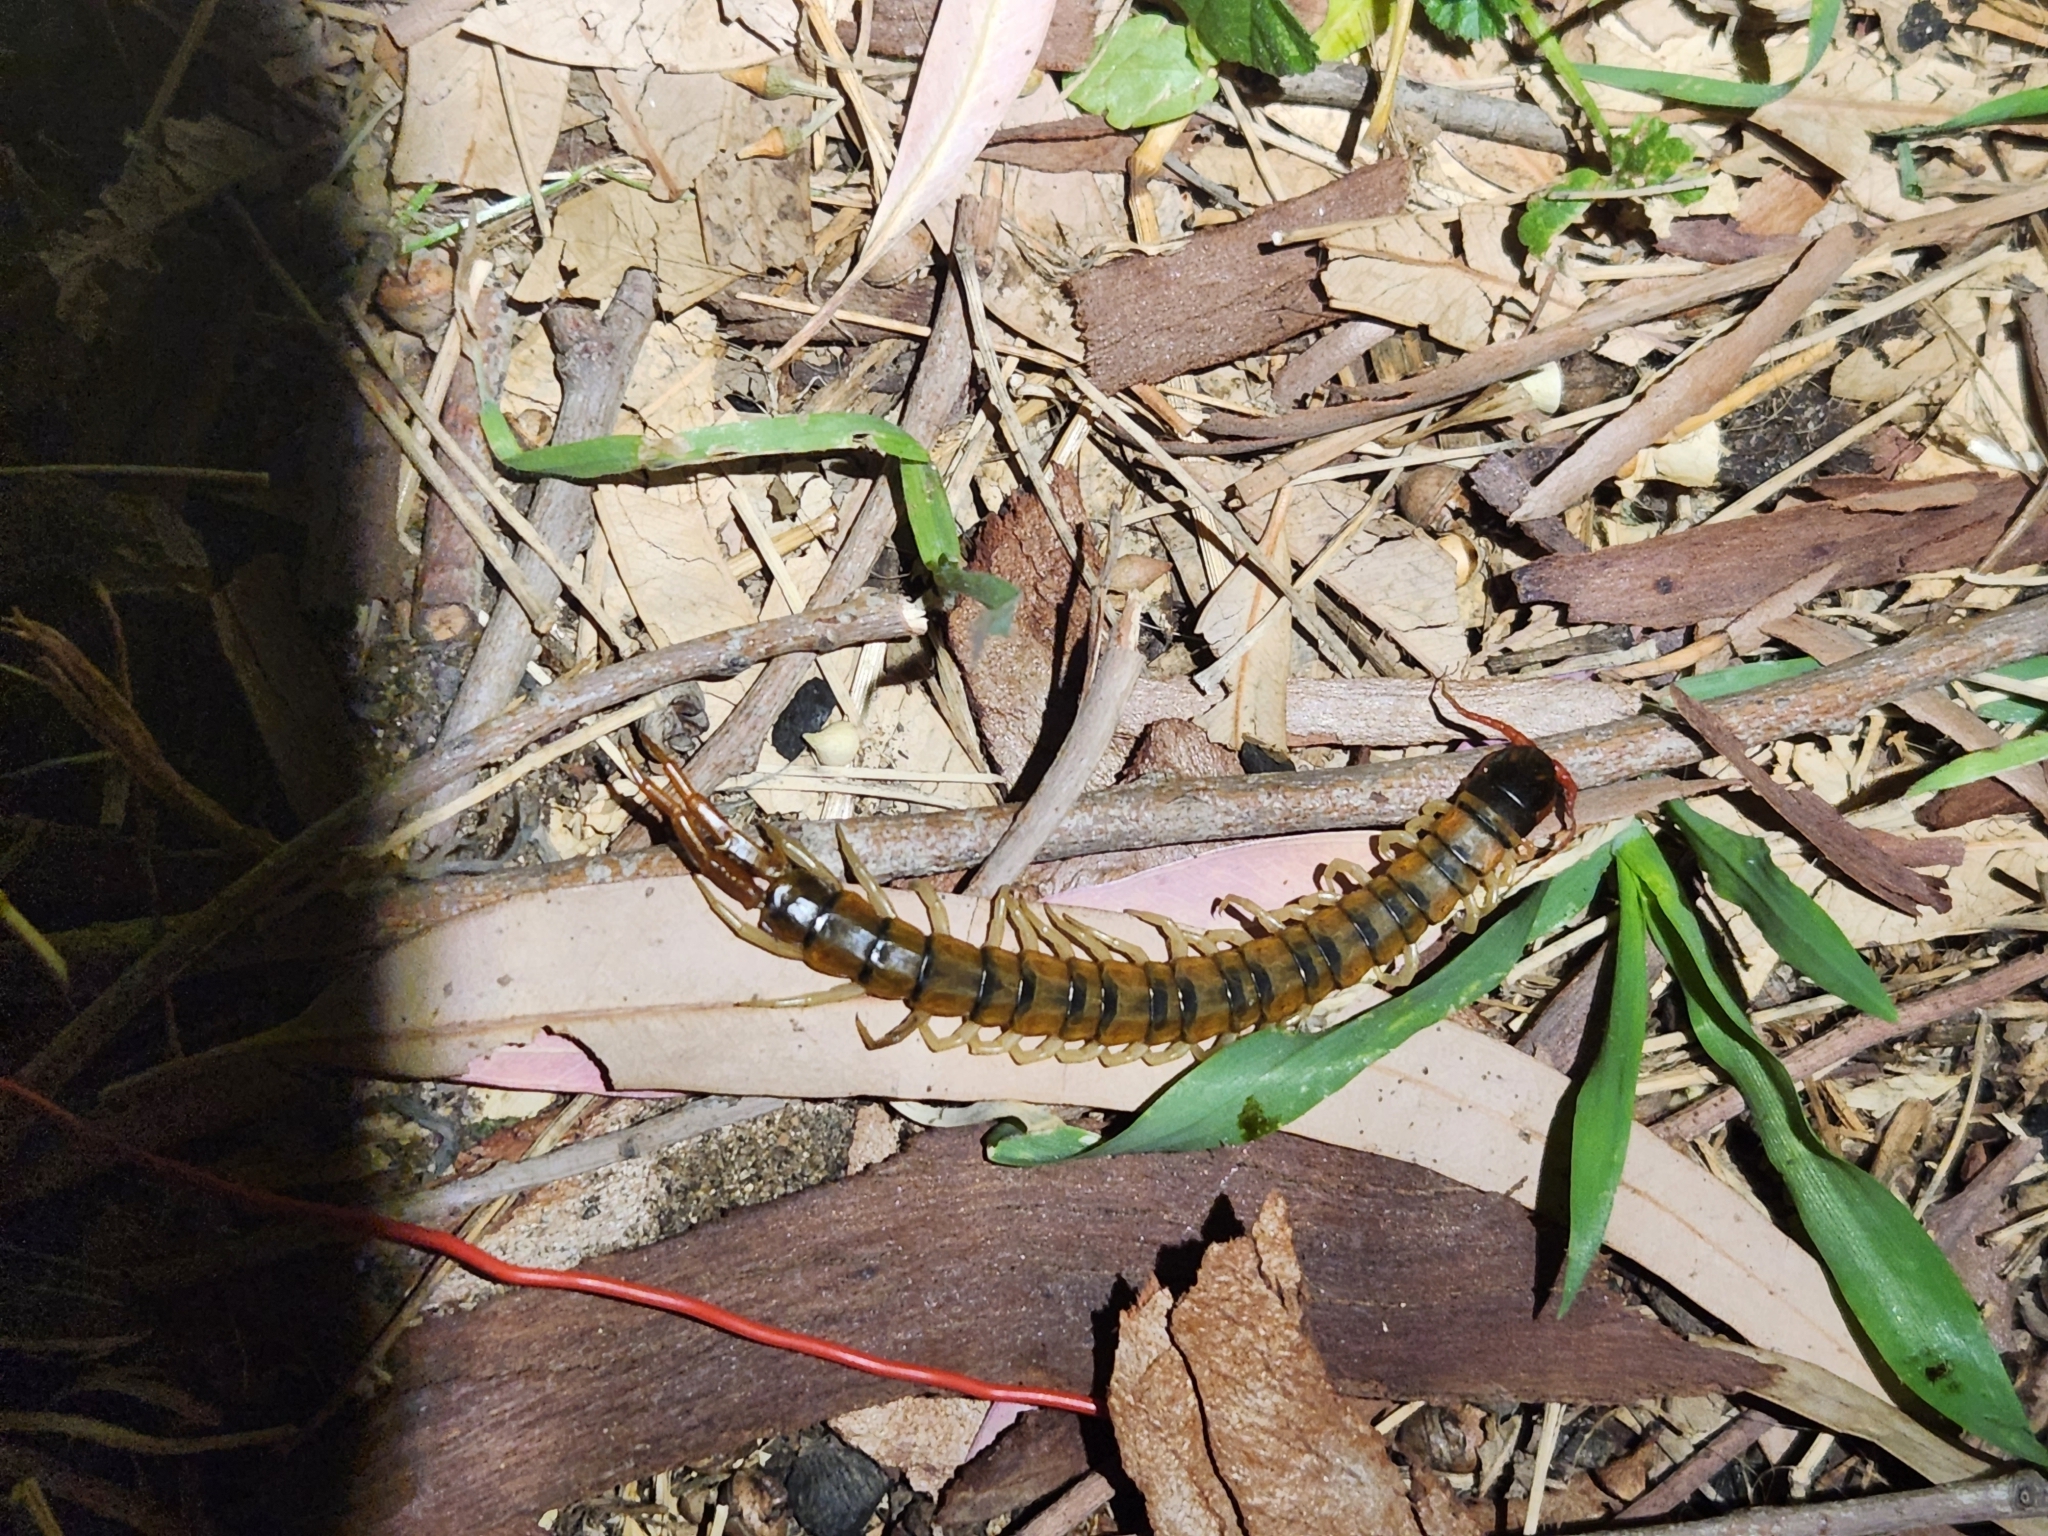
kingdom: Animalia
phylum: Arthropoda
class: Chilopoda
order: Scolopendromorpha
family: Scolopendridae
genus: Scolopendra
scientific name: Scolopendra cingulata
